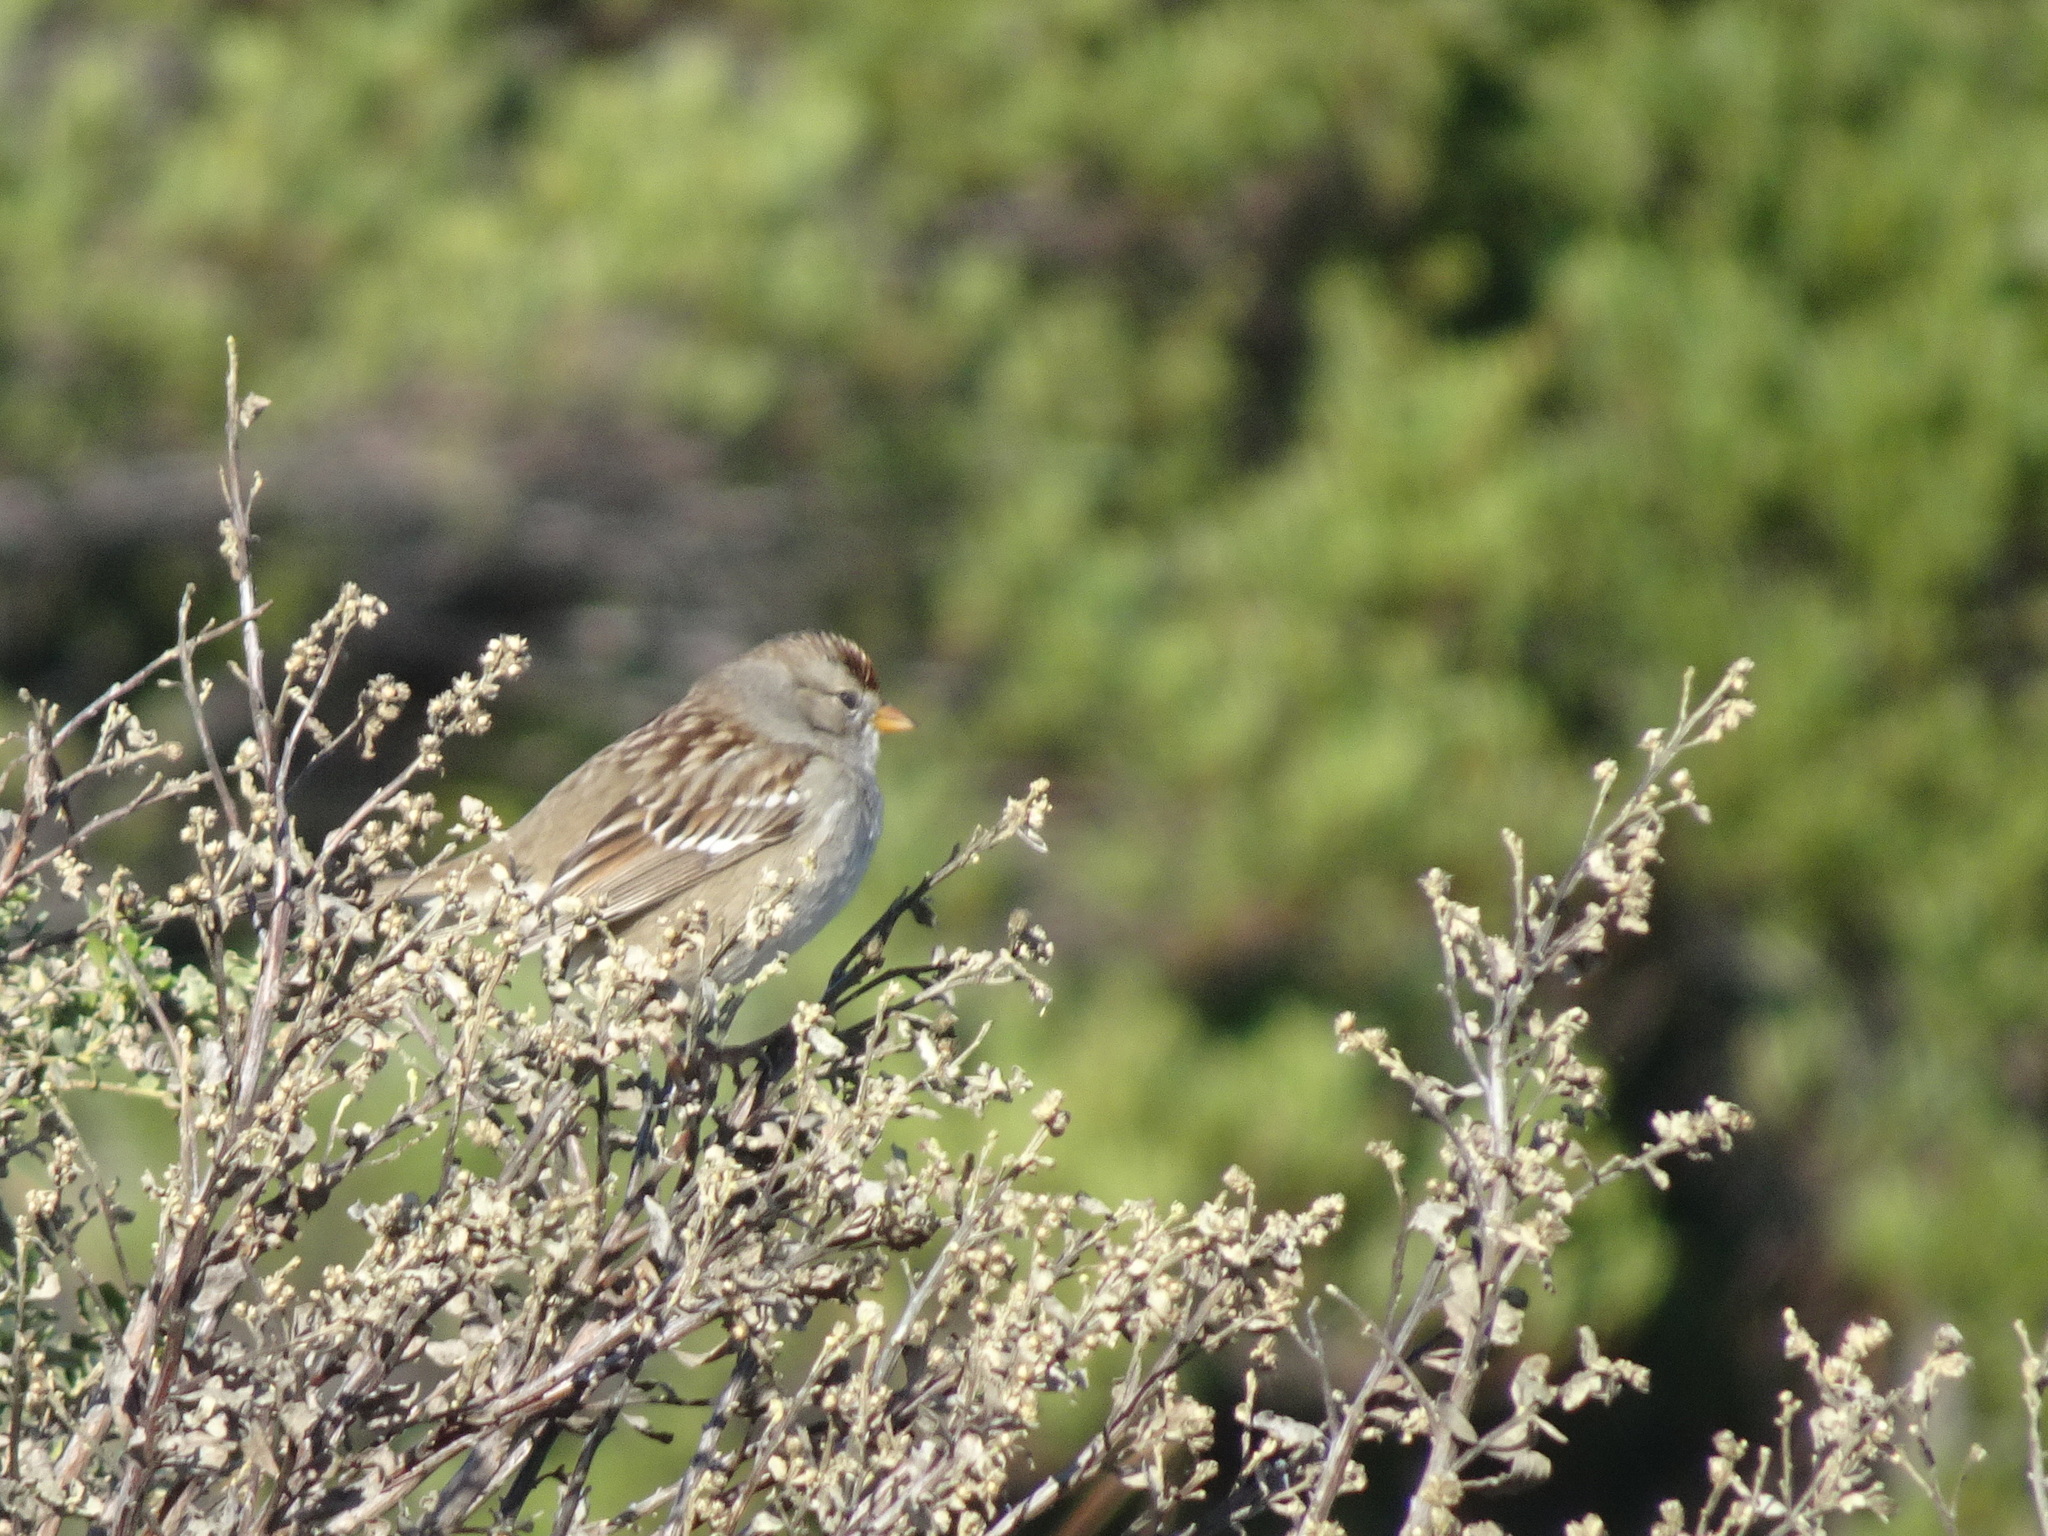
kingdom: Animalia
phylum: Chordata
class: Aves
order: Passeriformes
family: Passerellidae
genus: Zonotrichia
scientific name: Zonotrichia leucophrys
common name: White-crowned sparrow
